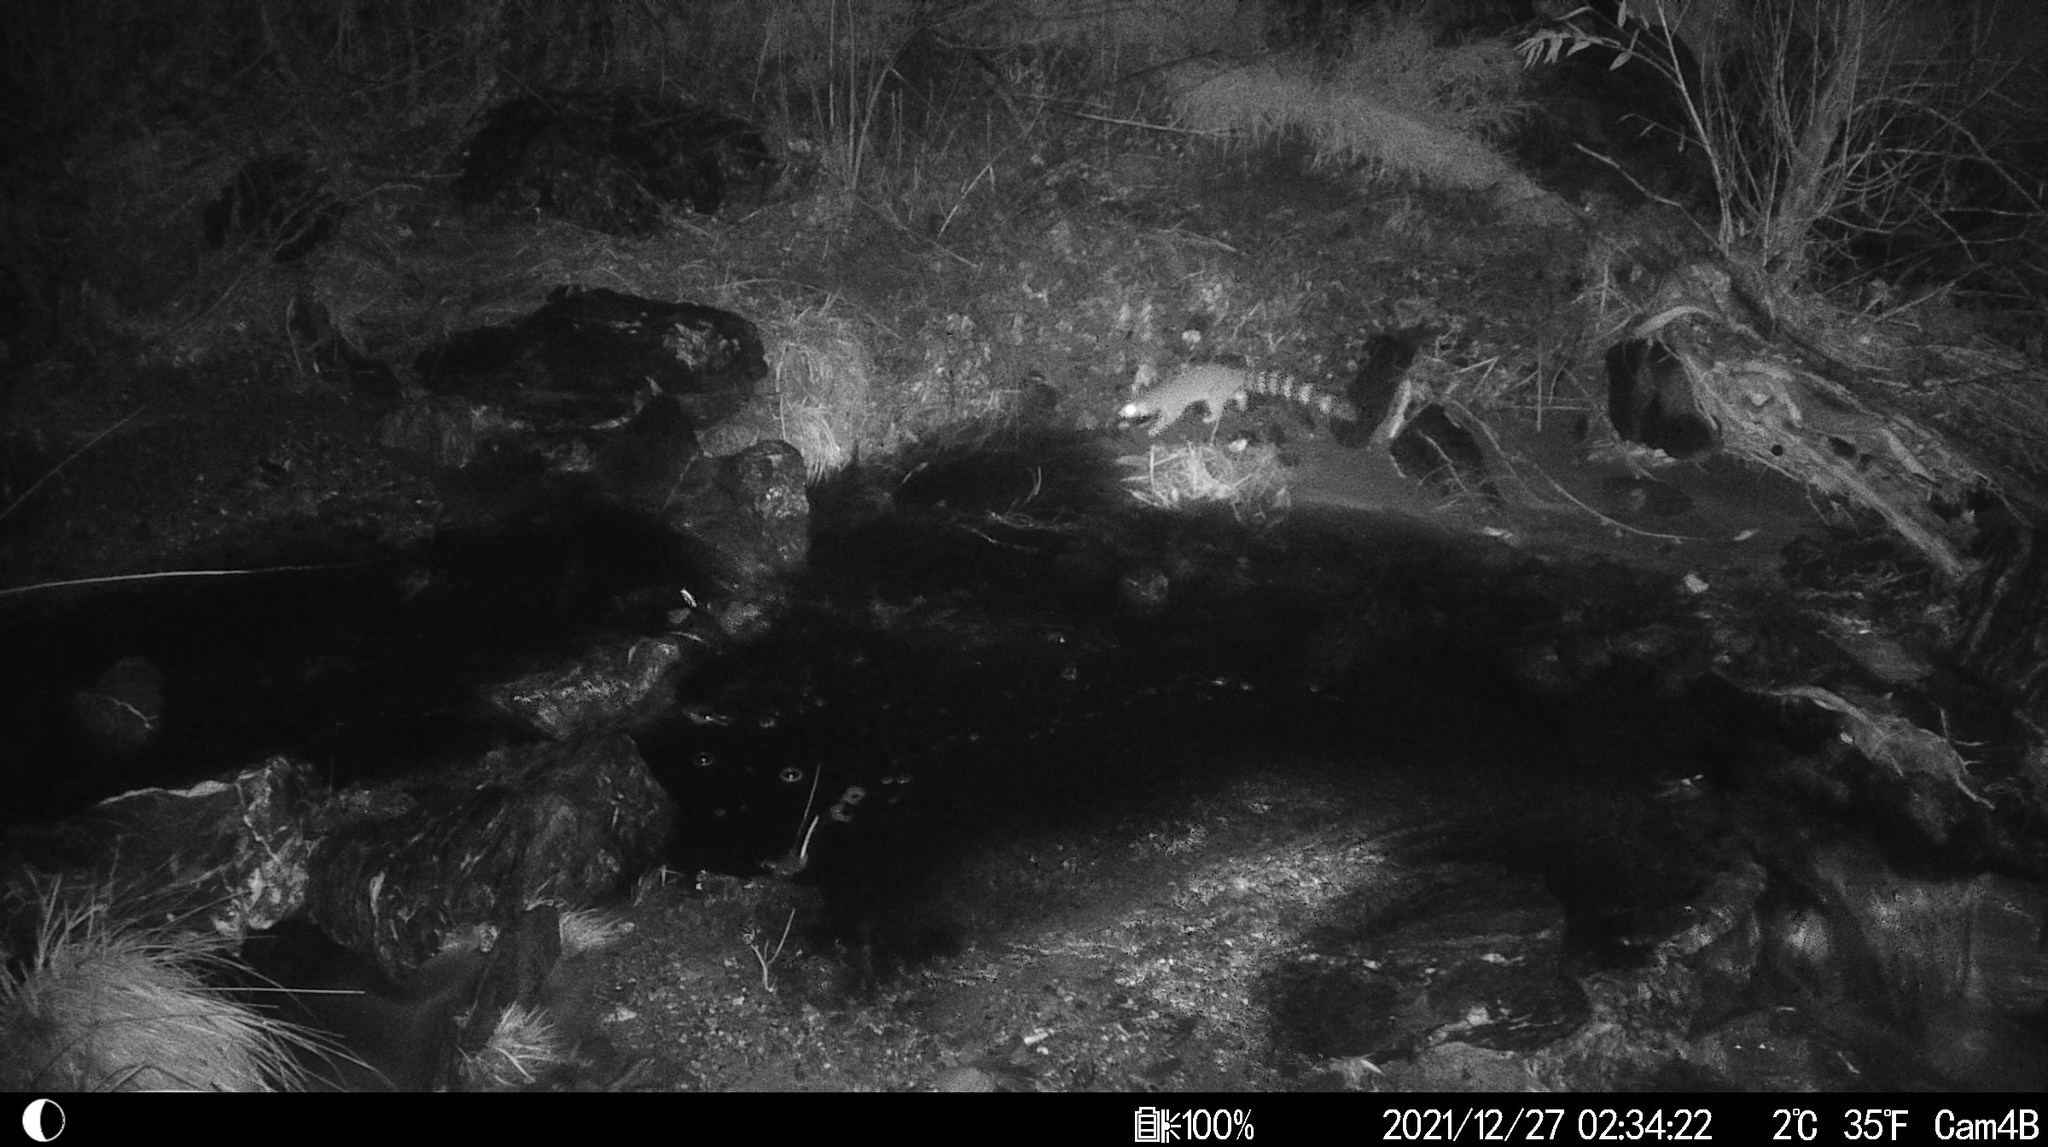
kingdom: Animalia
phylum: Chordata
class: Mammalia
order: Carnivora
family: Procyonidae
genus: Bassariscus
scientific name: Bassariscus astutus
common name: Ringtail
